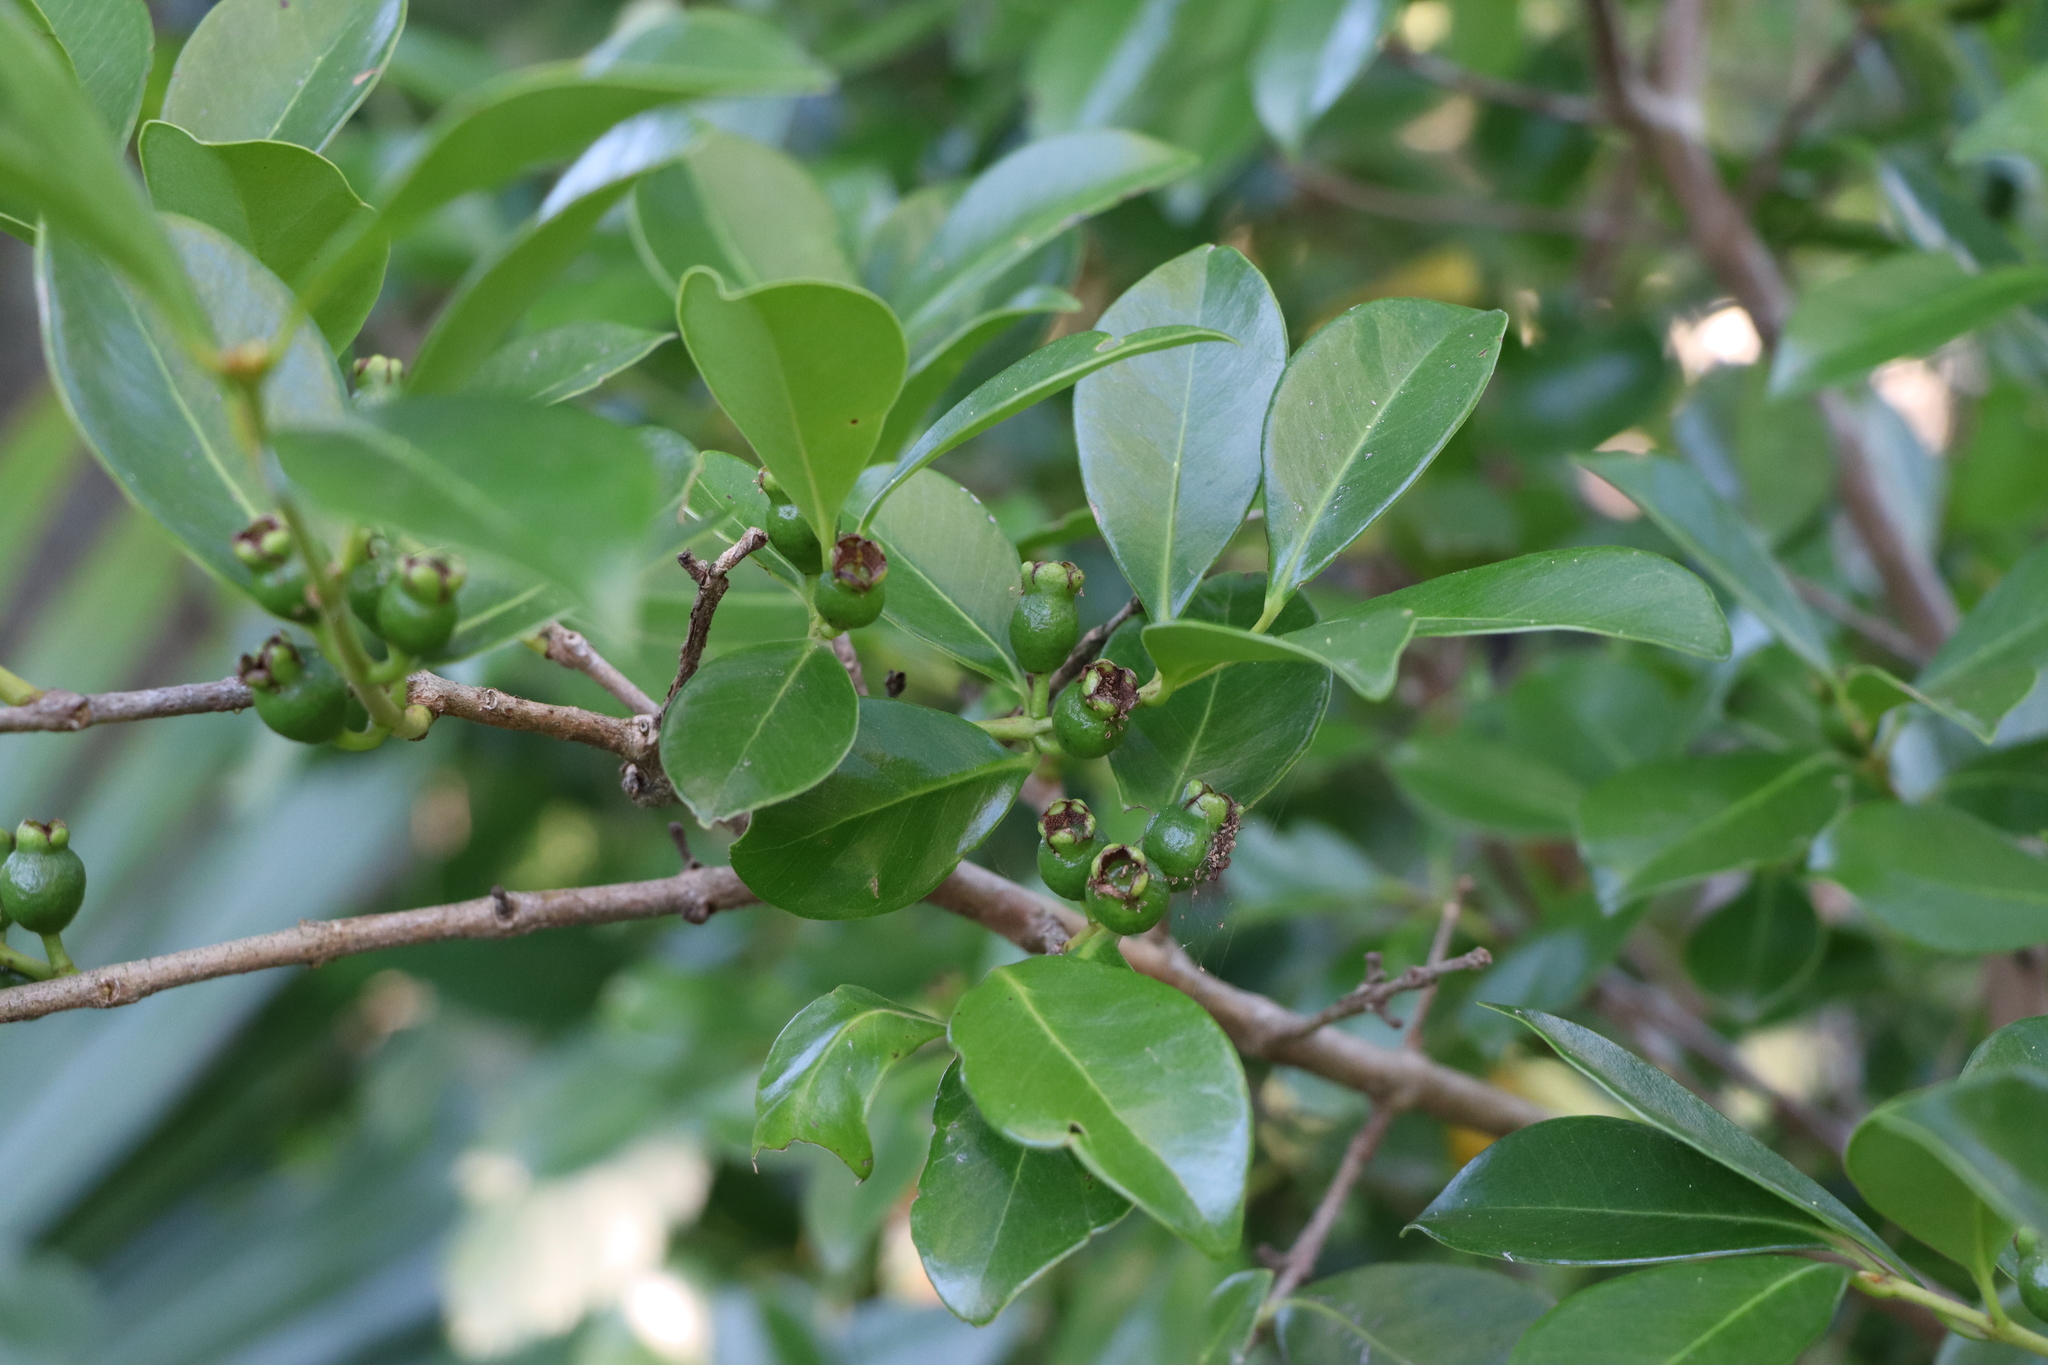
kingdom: Plantae
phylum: Tracheophyta
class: Magnoliopsida
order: Myrtales
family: Myrtaceae
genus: Psidium
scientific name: Psidium cattleianum
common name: Strawberry guava
